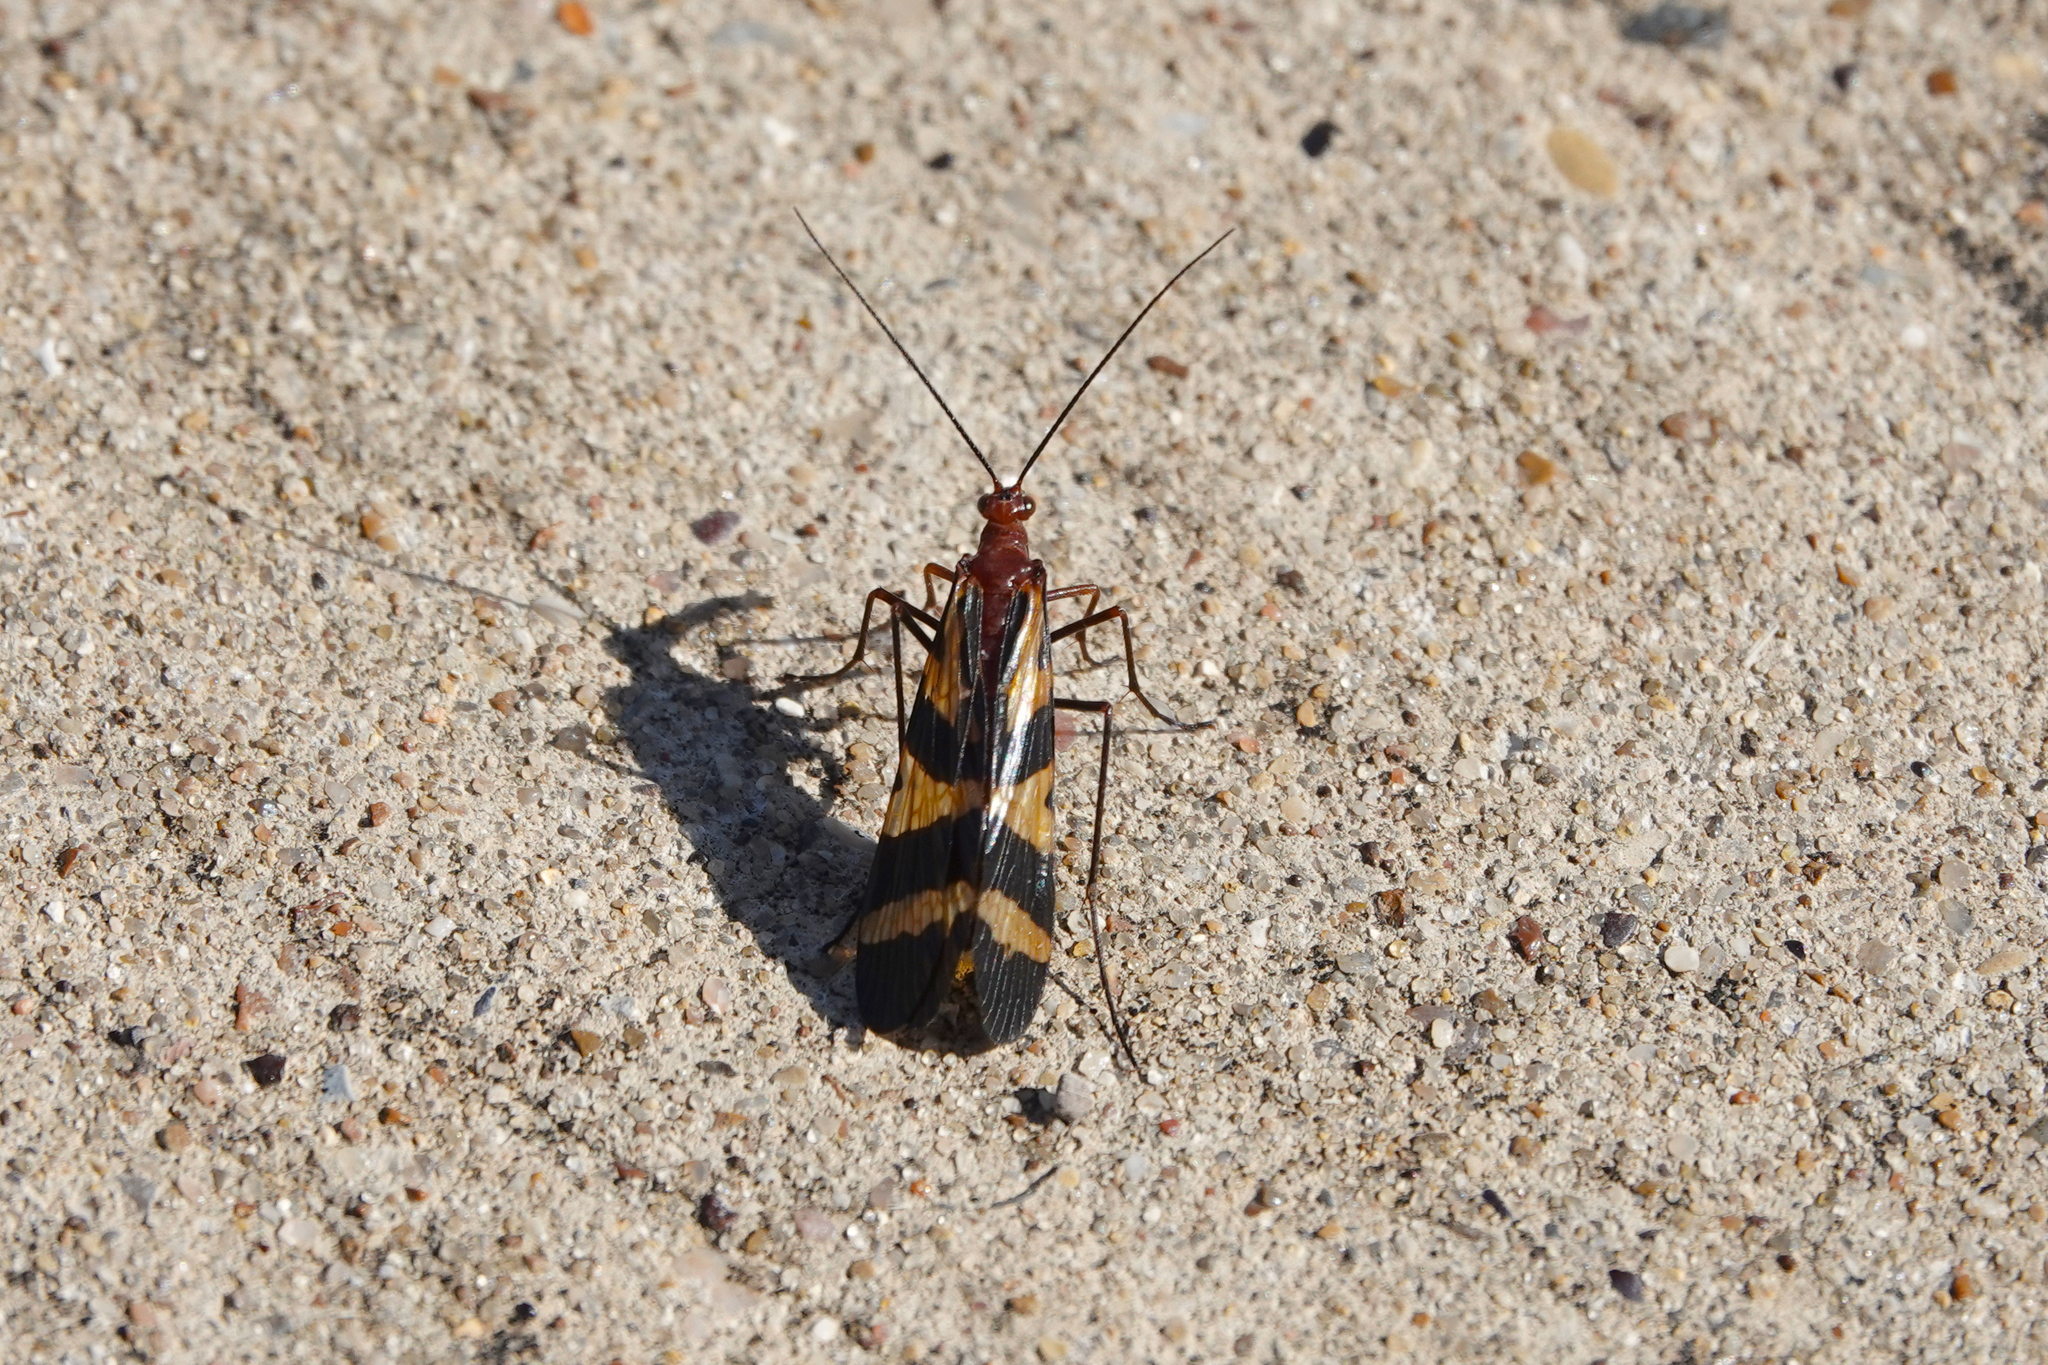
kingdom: Animalia
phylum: Arthropoda
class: Insecta
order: Mecoptera
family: Panorpidae
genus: Panorpa
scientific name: Panorpa nuptialis
